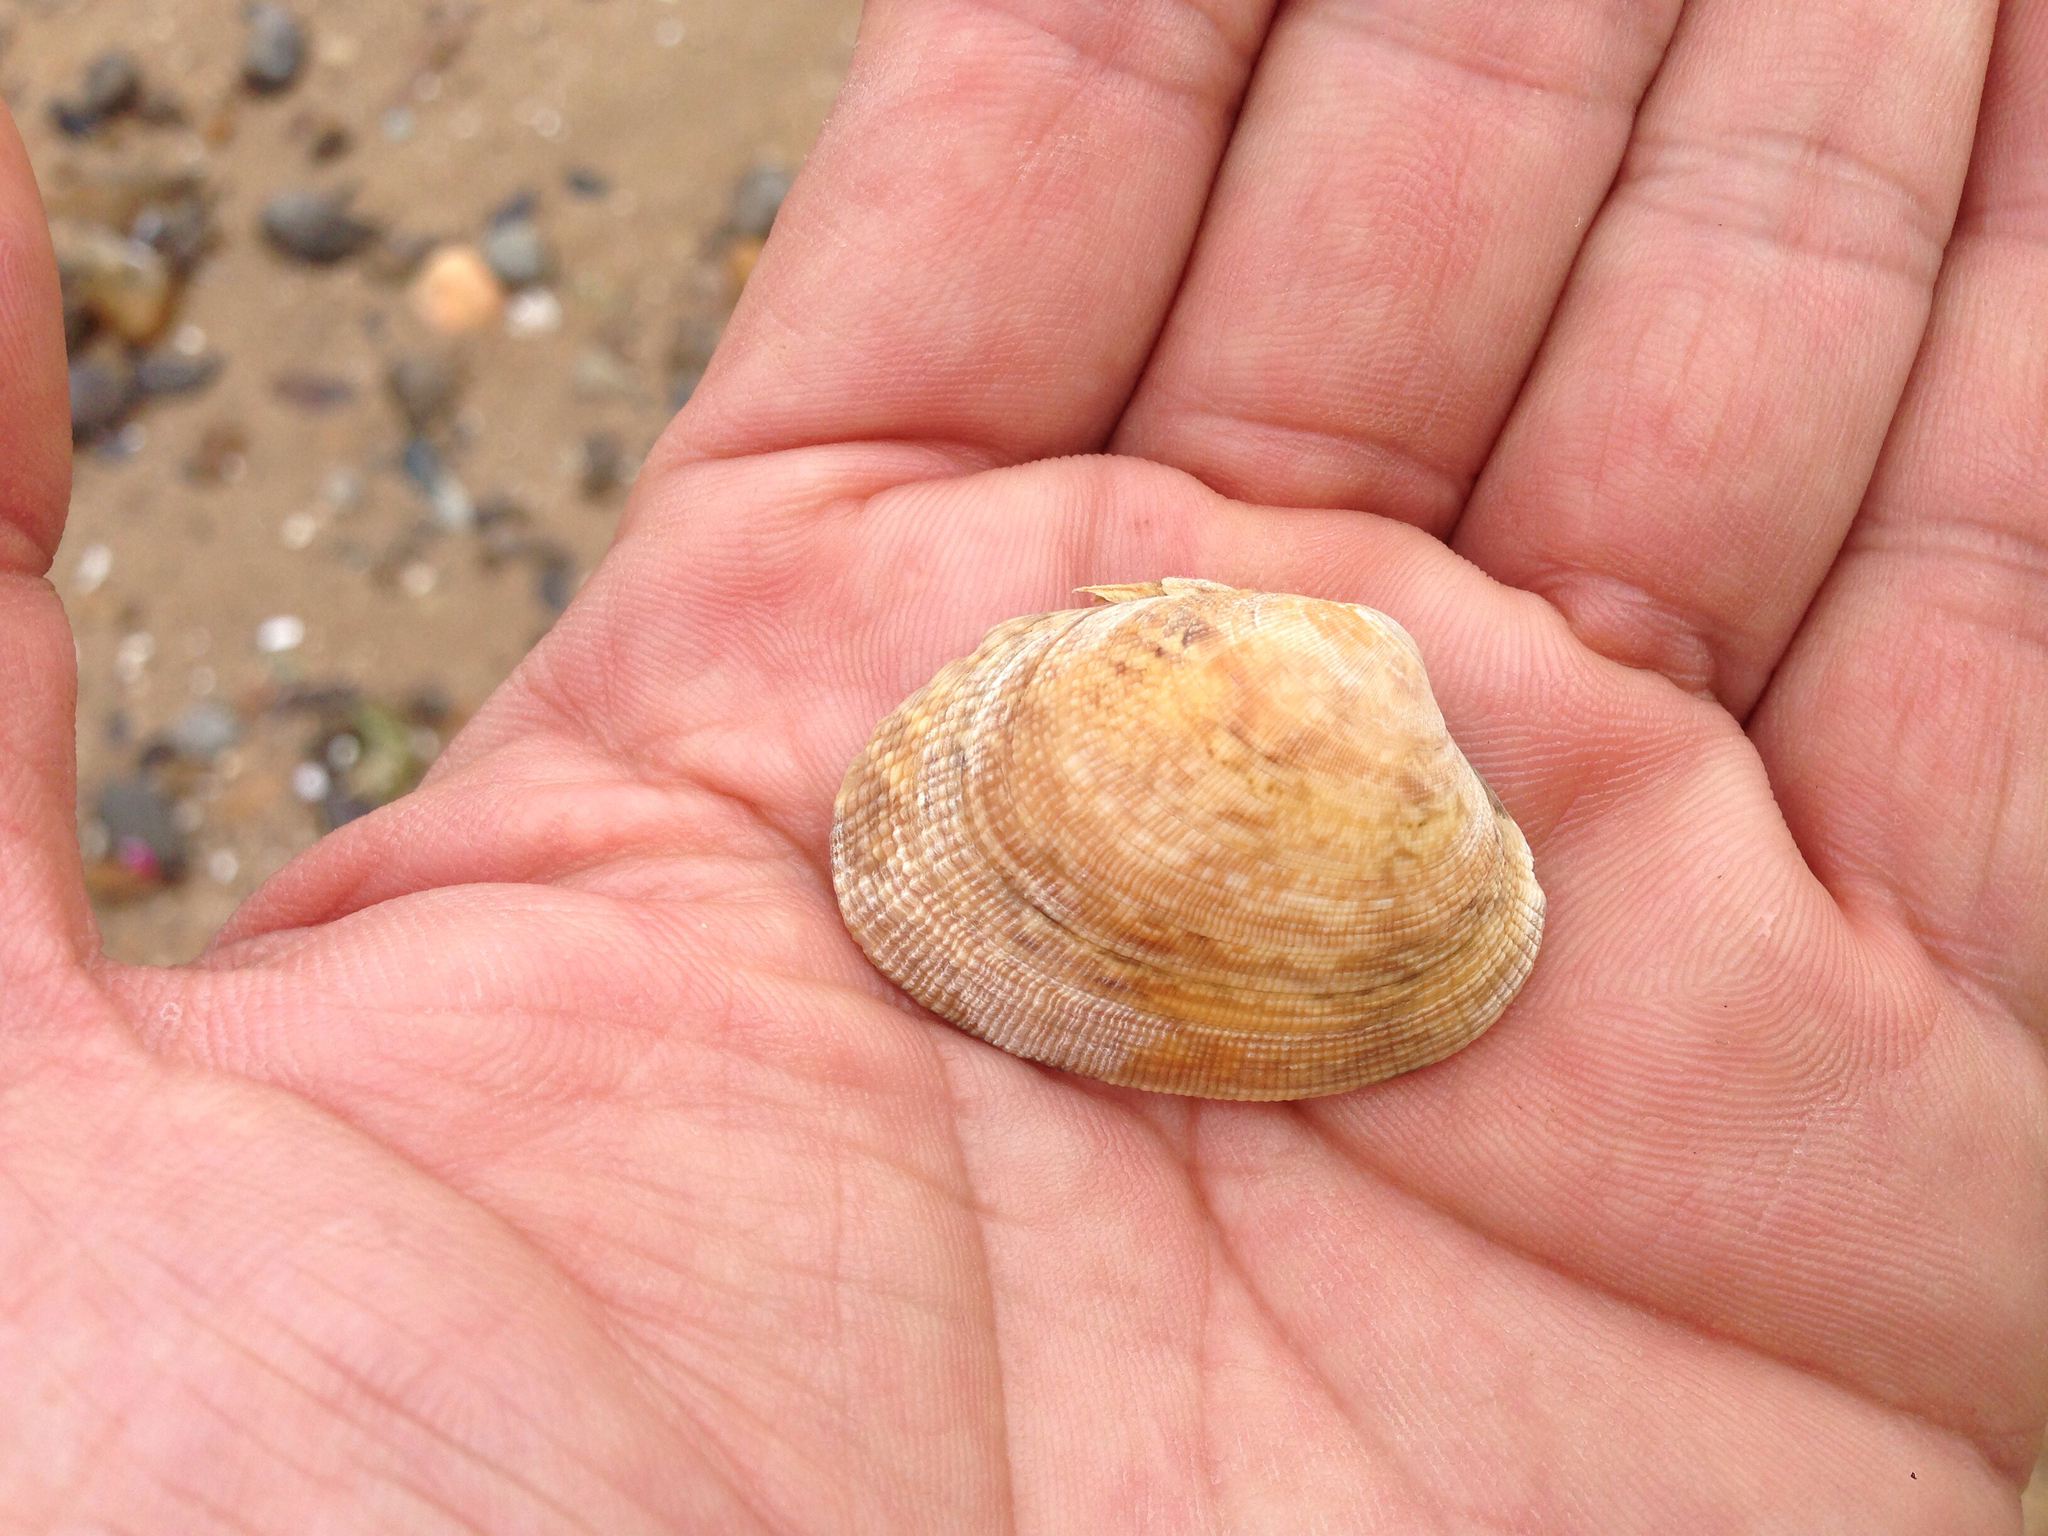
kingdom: Animalia
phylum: Mollusca
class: Bivalvia
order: Venerida
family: Veneridae
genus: Ruditapes
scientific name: Ruditapes philippinarum
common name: Manila clam
